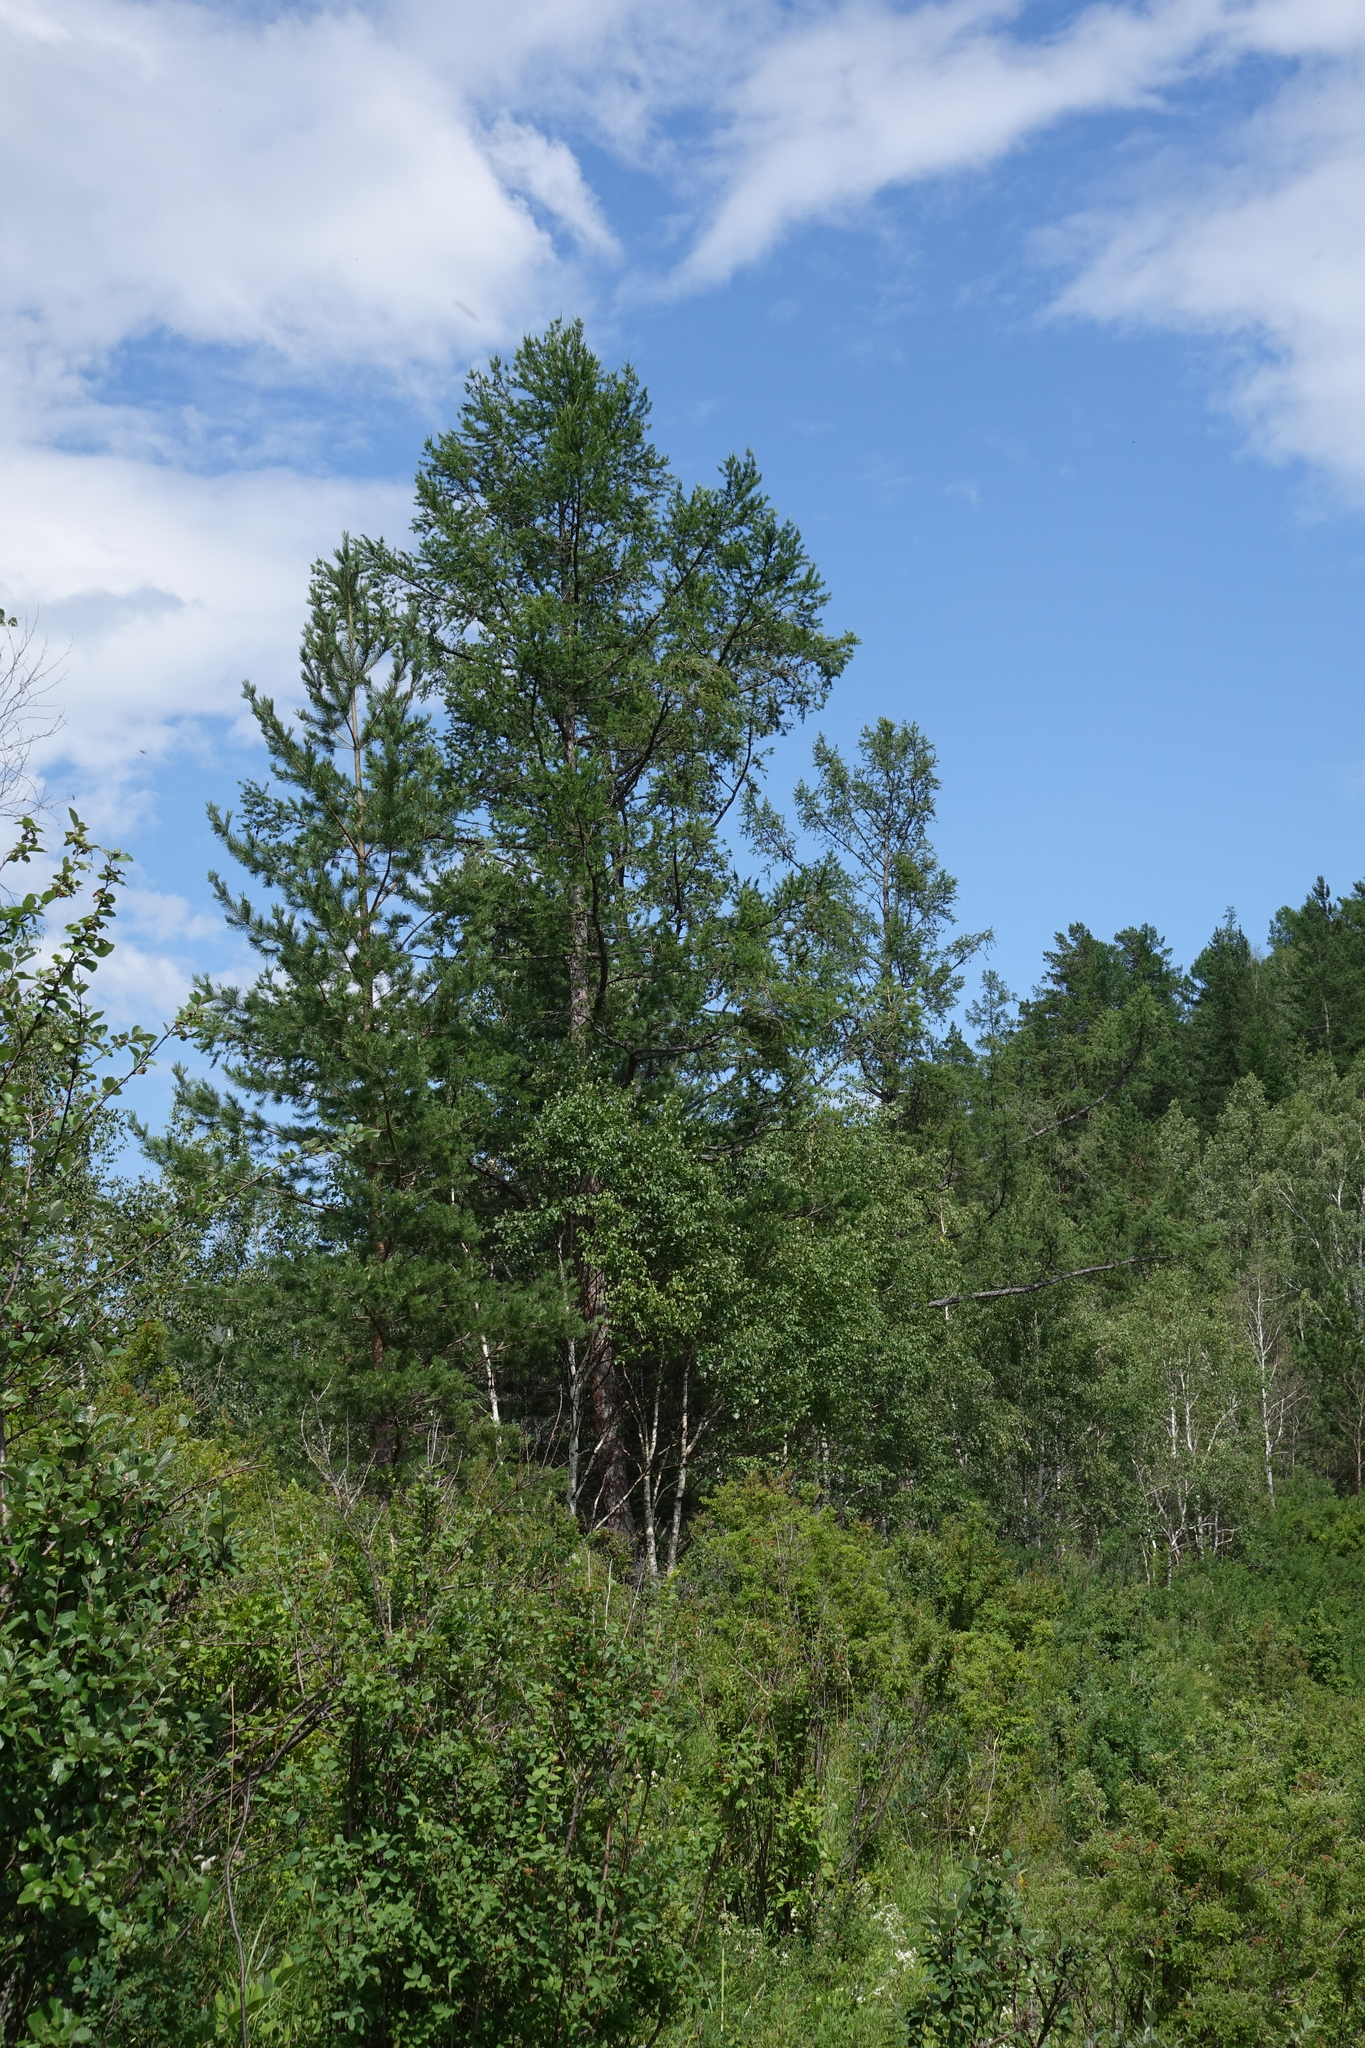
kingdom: Plantae
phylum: Tracheophyta
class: Pinopsida
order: Pinales
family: Pinaceae
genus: Larix
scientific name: Larix sibirica
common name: Siberian larch
